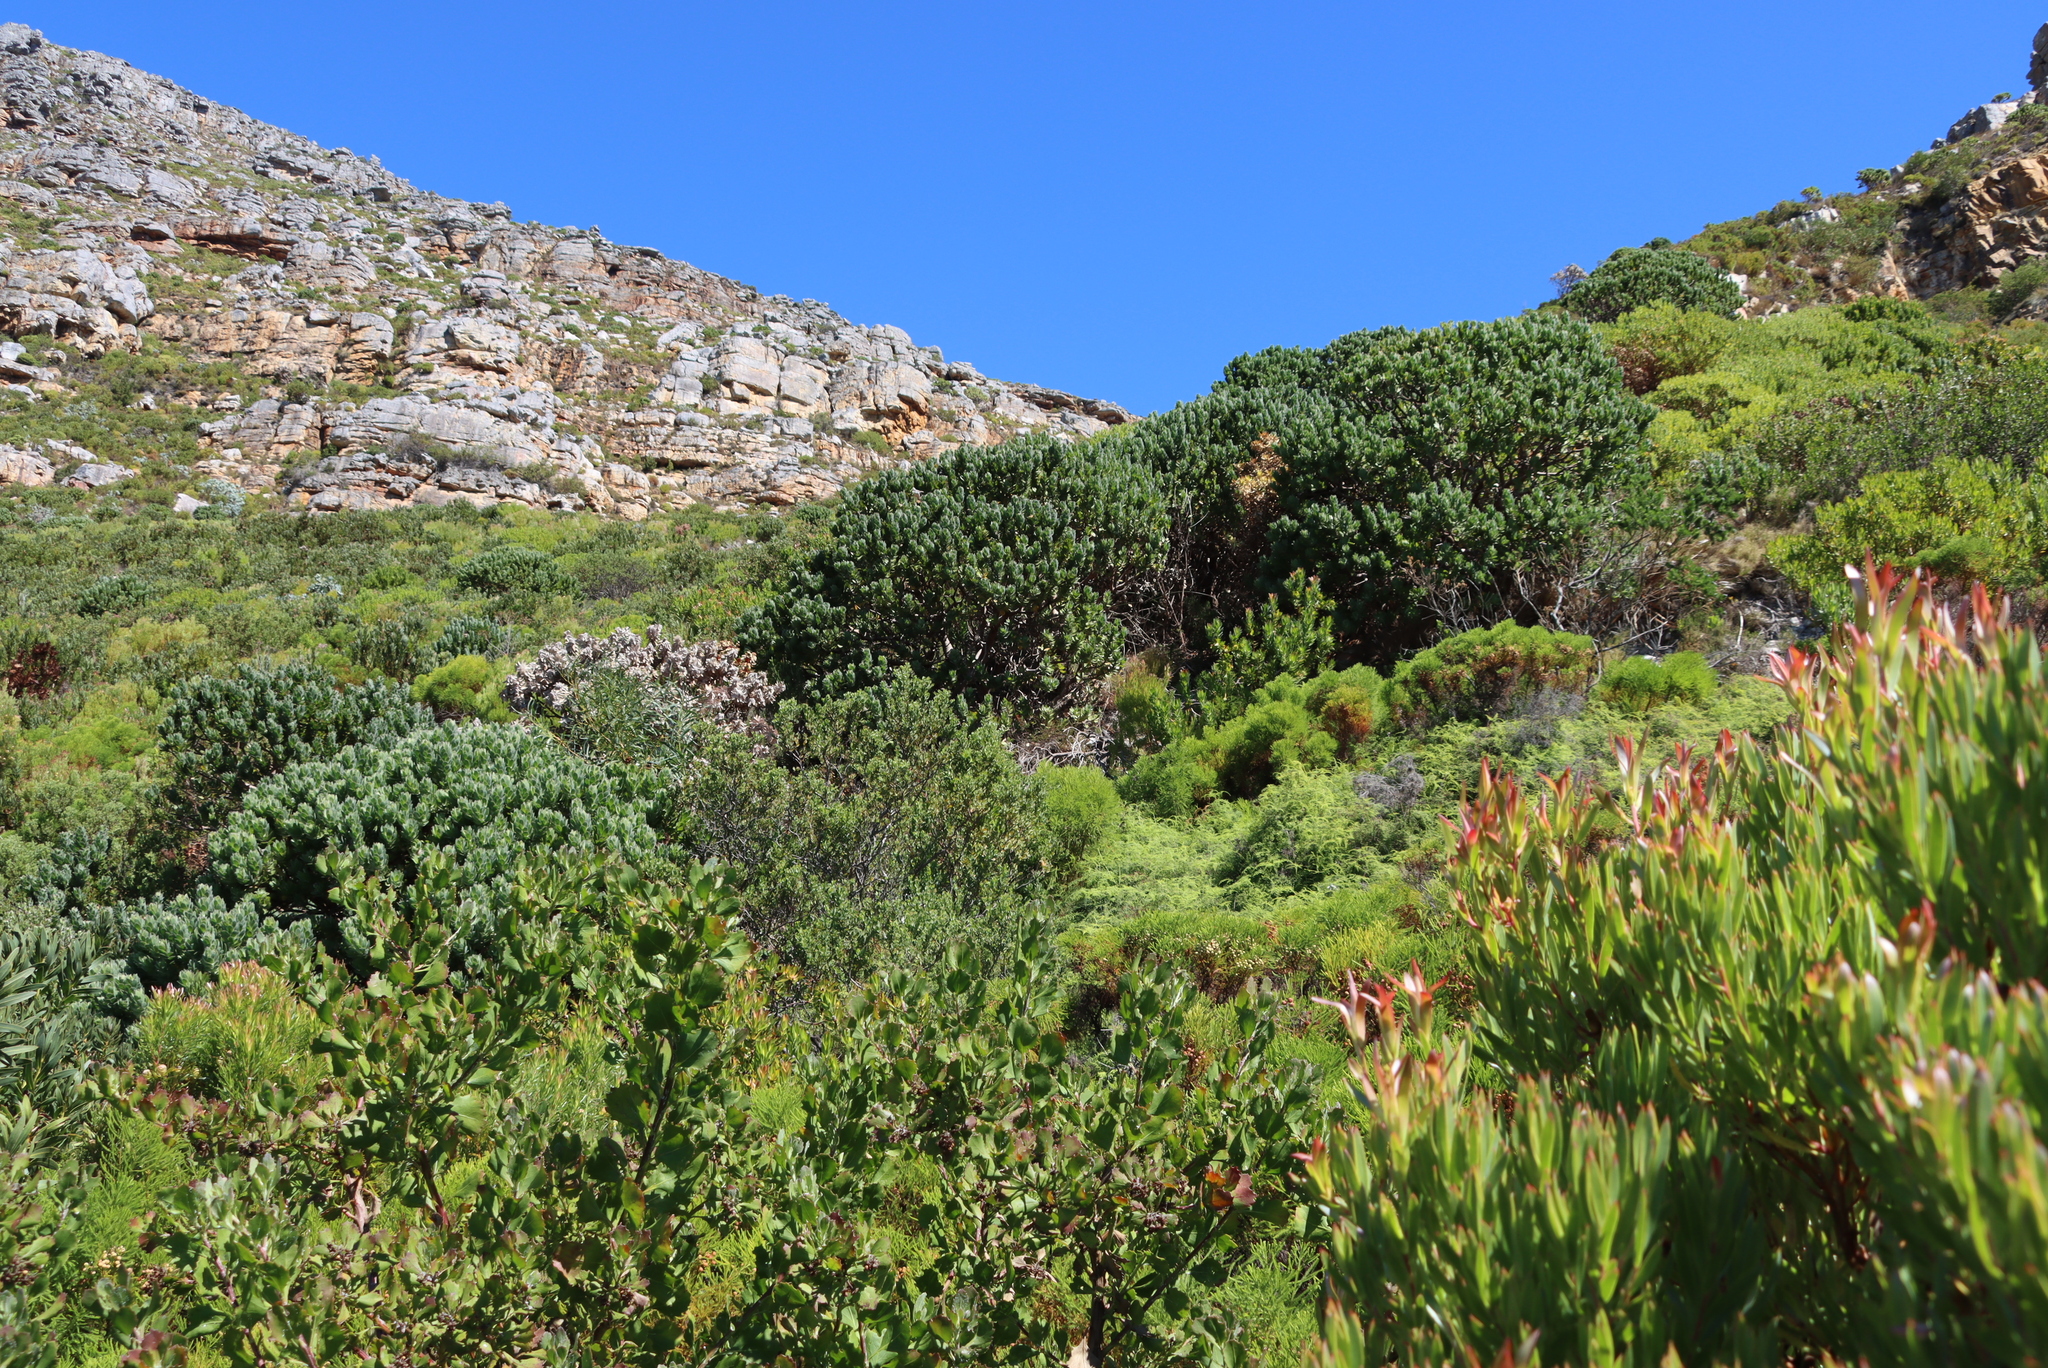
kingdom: Plantae
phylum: Tracheophyta
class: Magnoliopsida
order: Proteales
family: Proteaceae
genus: Leucospermum
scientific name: Leucospermum conocarpodendron
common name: Tree pincushion
